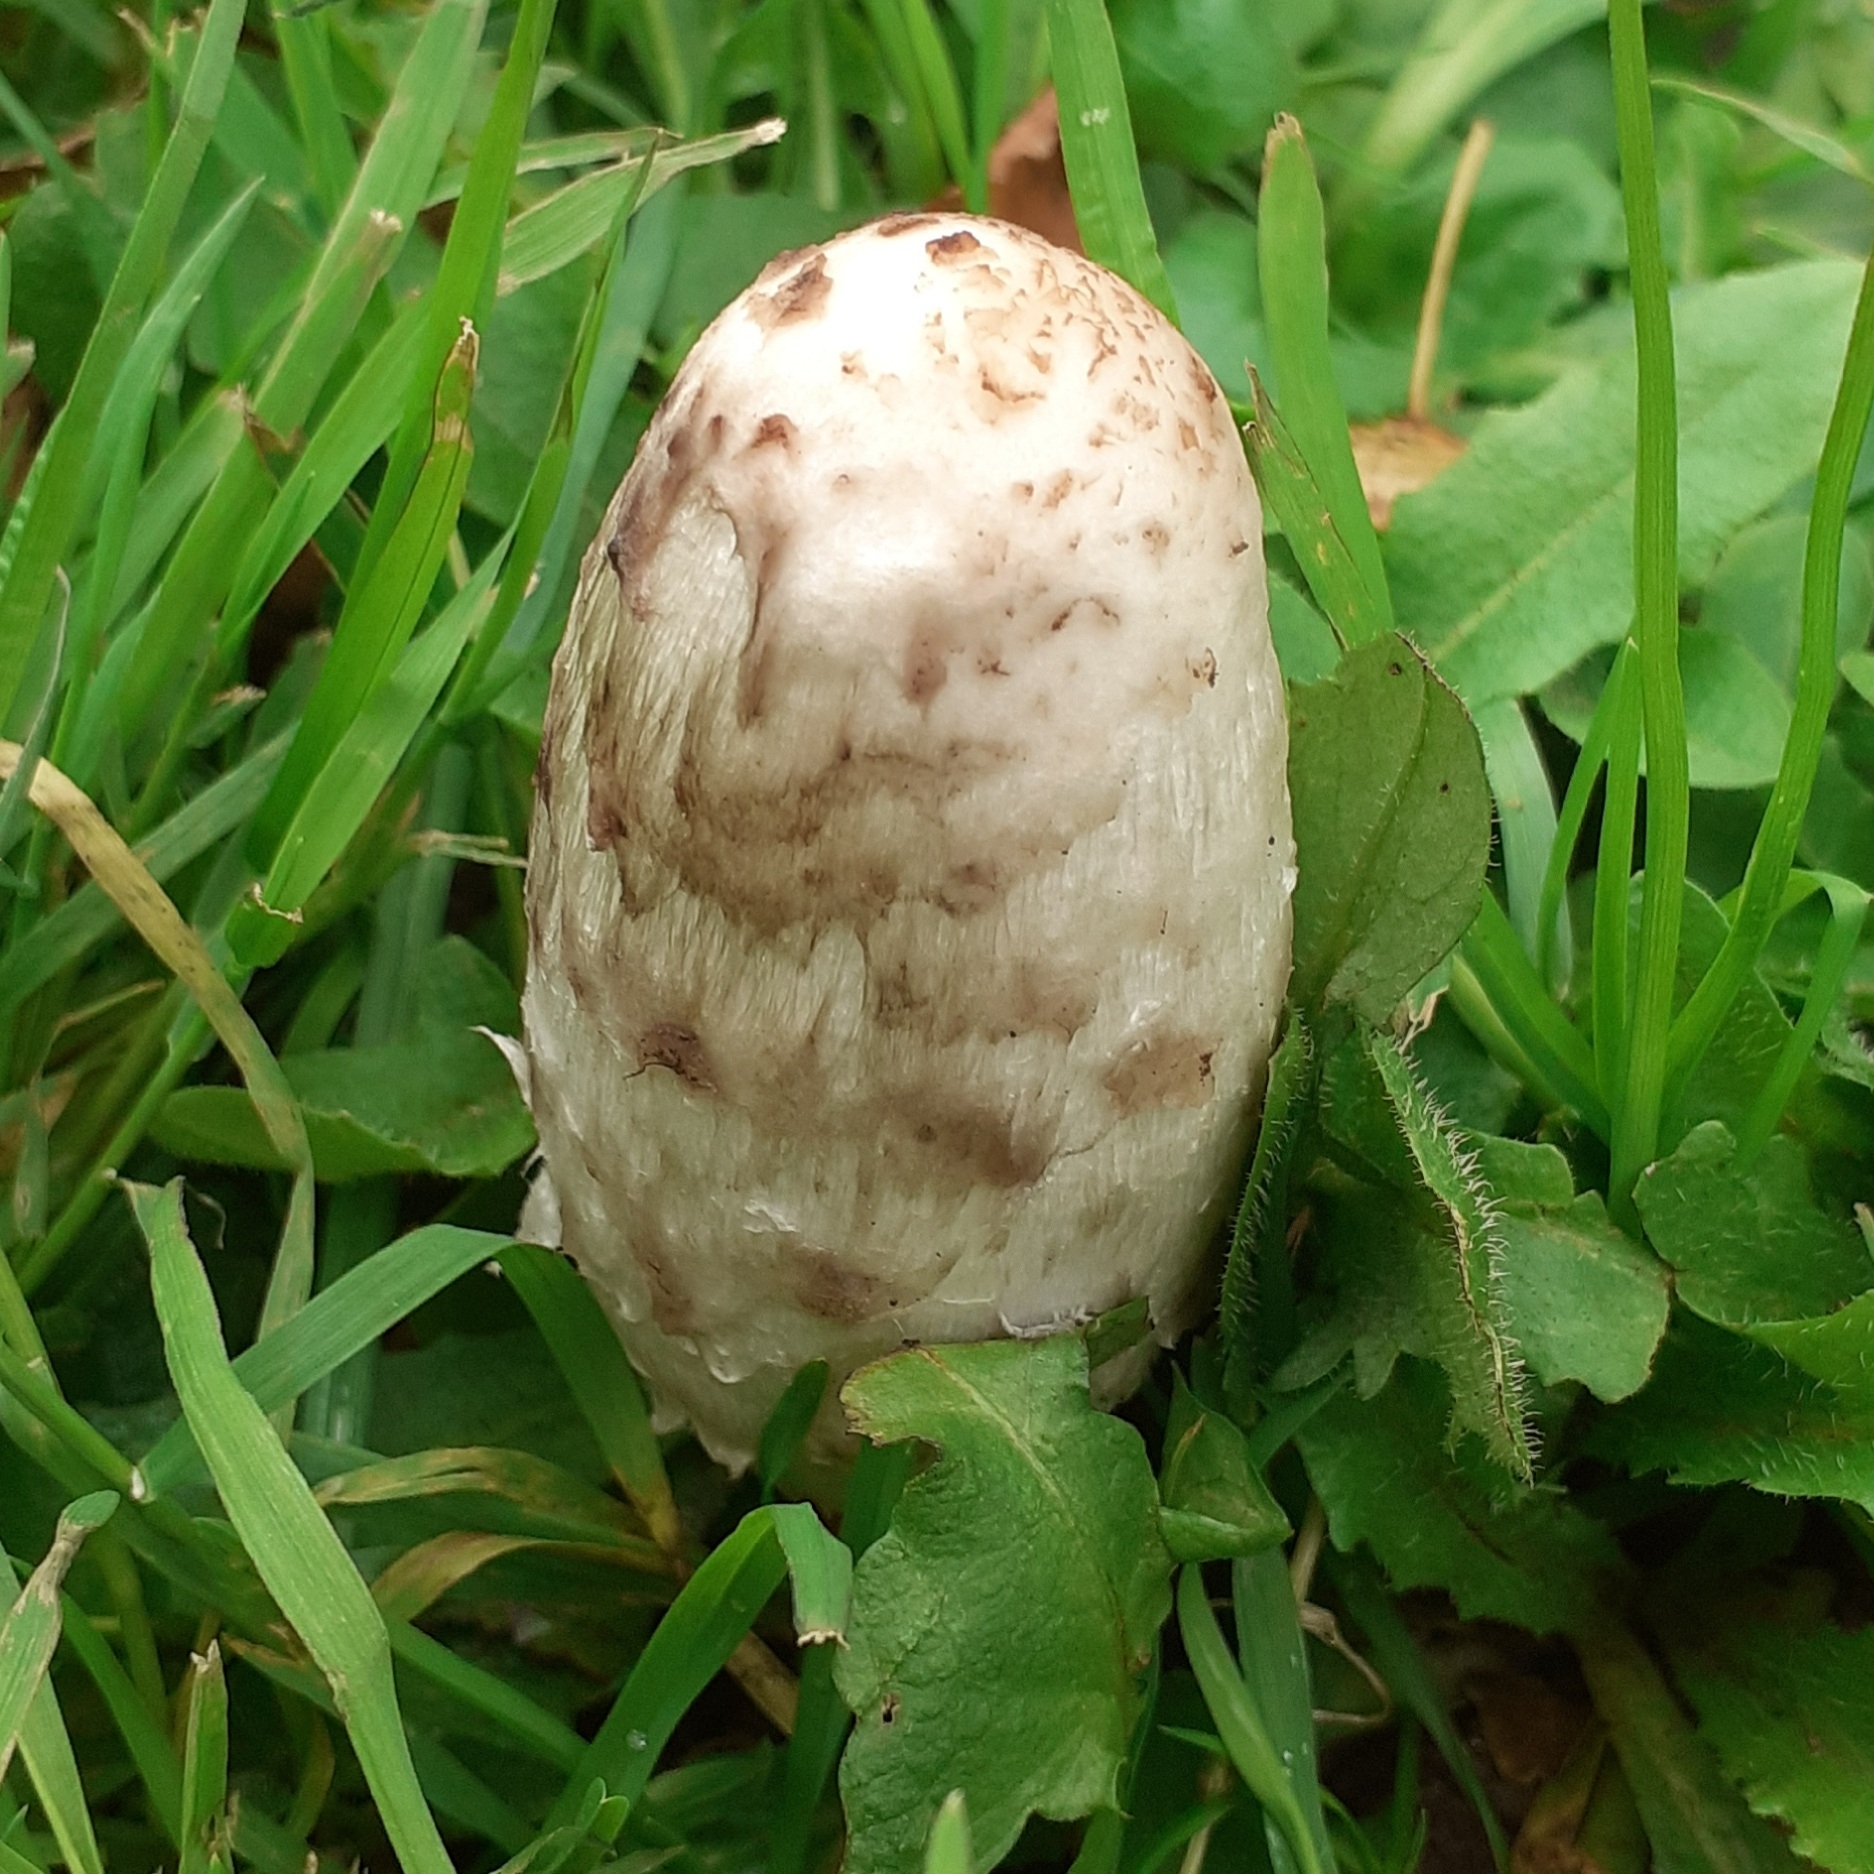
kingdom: Fungi
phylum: Basidiomycota
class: Agaricomycetes
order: Agaricales
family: Agaricaceae
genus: Coprinus
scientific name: Coprinus comatus
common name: Lawyer's wig
